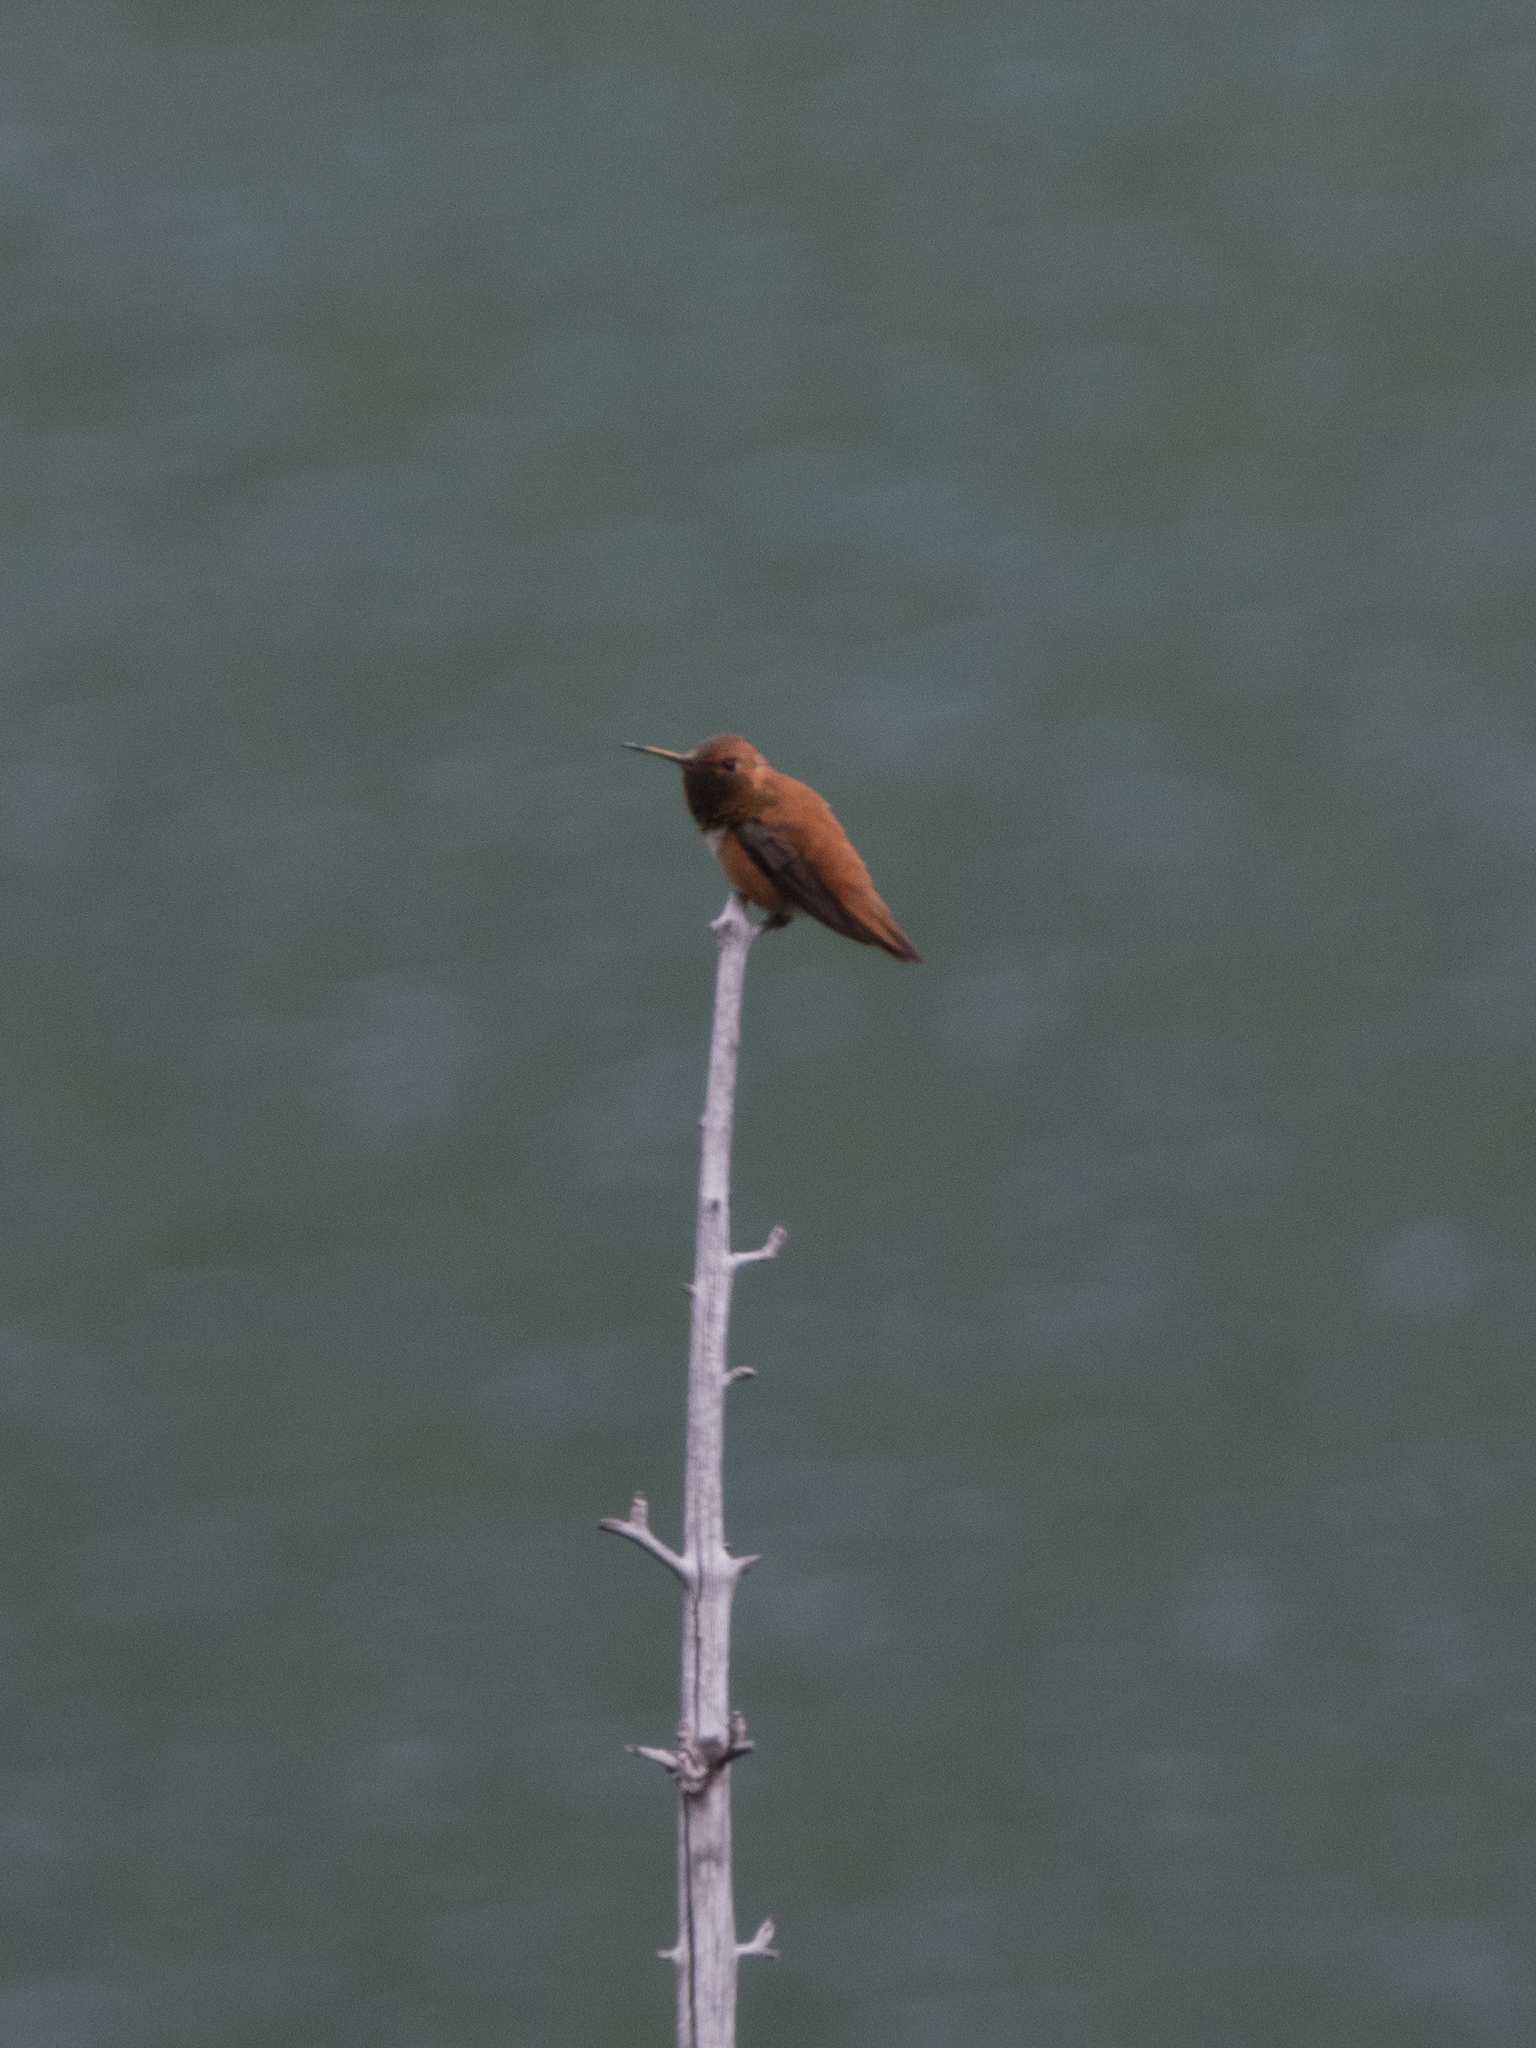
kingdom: Animalia
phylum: Chordata
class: Aves
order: Apodiformes
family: Trochilidae
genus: Selasphorus
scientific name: Selasphorus rufus
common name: Rufous hummingbird
